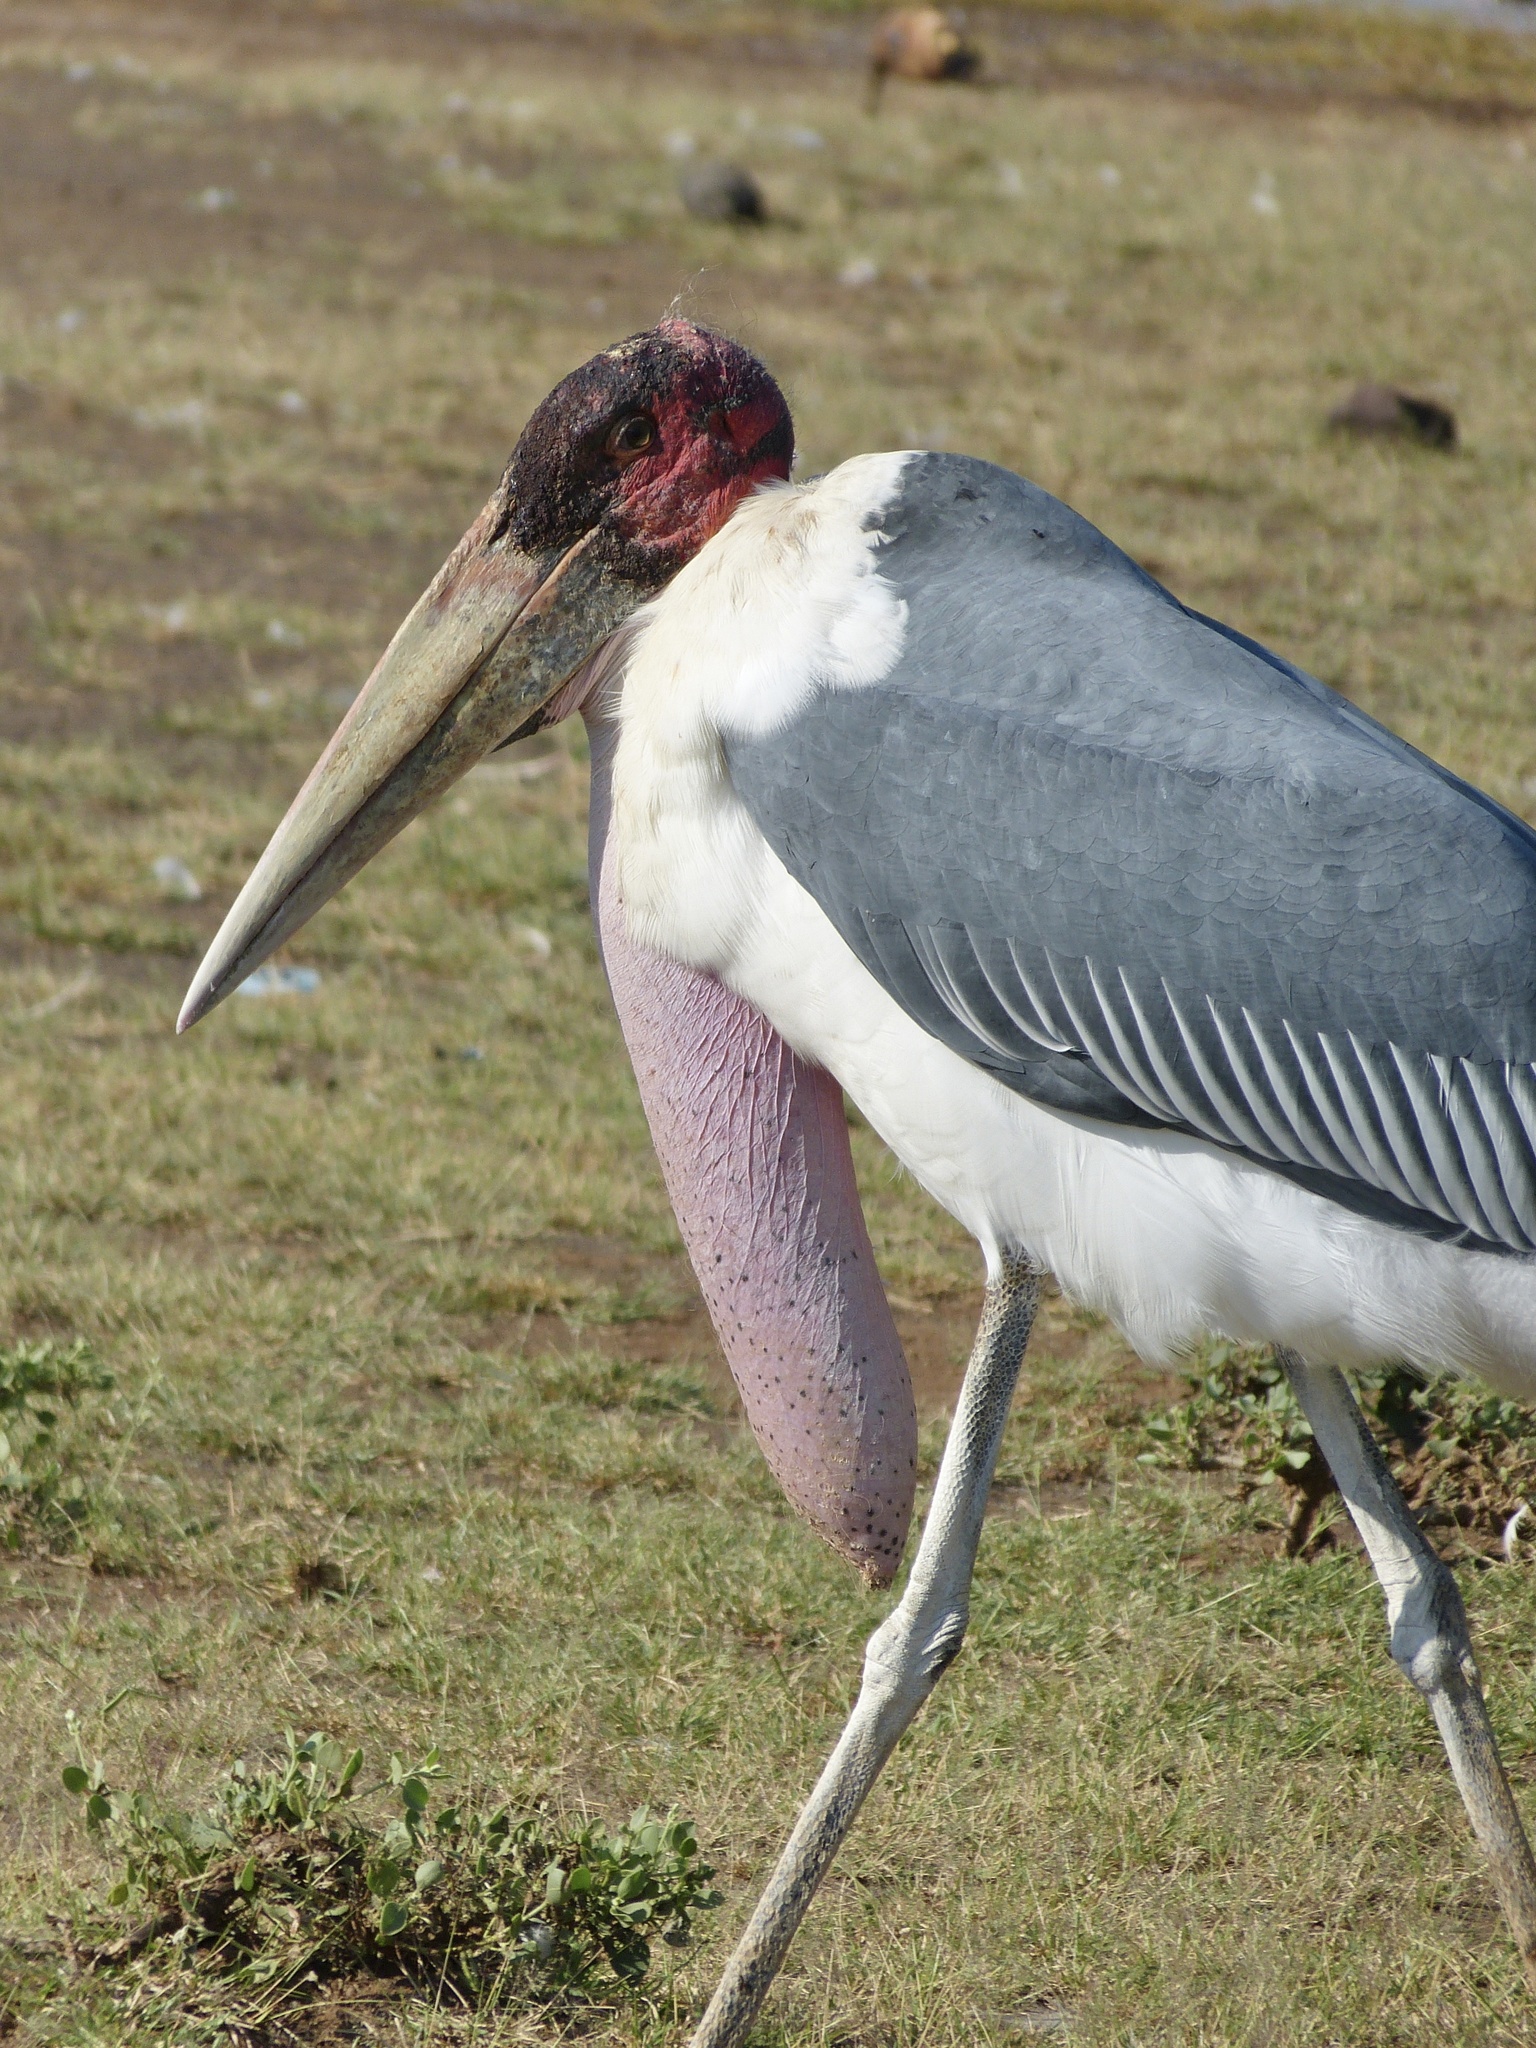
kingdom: Animalia
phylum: Chordata
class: Aves
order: Ciconiiformes
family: Ciconiidae
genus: Leptoptilos
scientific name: Leptoptilos crumenifer
